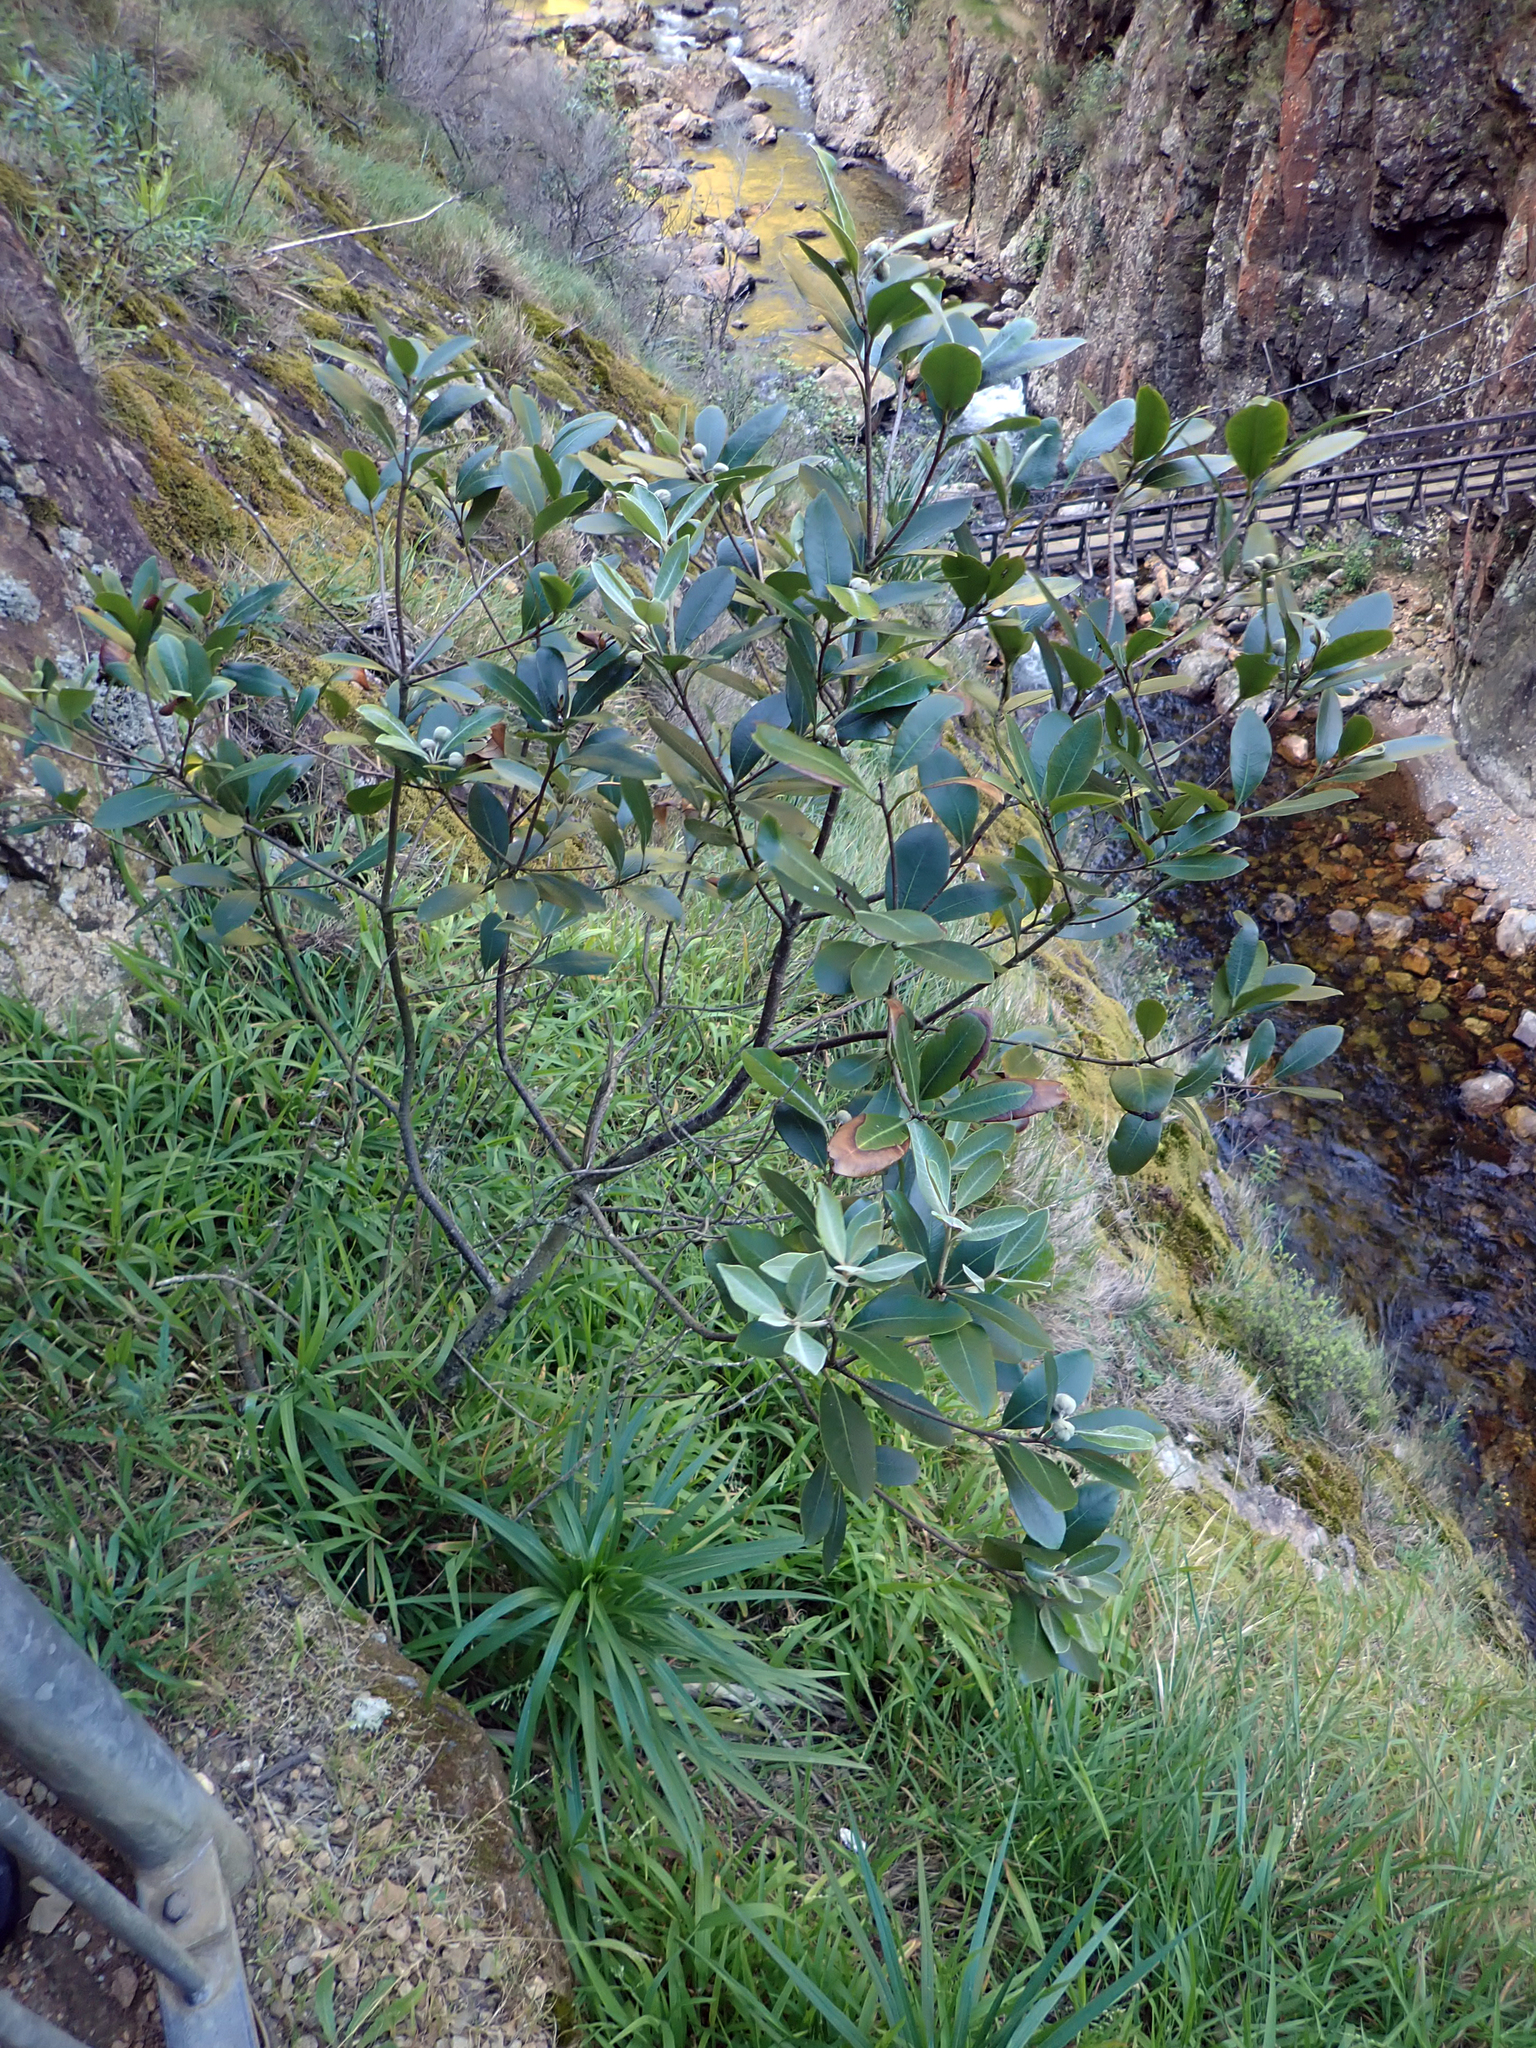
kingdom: Plantae
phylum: Tracheophyta
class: Magnoliopsida
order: Apiales
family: Pittosporaceae
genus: Pittosporum
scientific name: Pittosporum huttonianum
